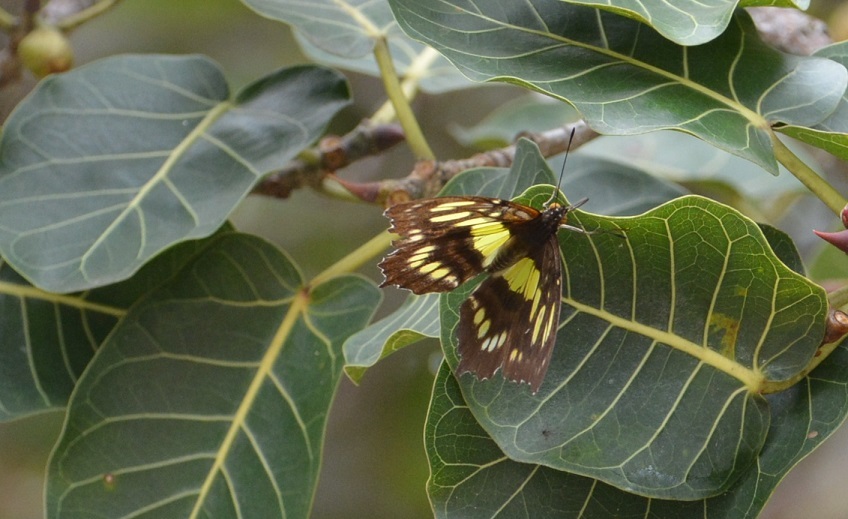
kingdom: Animalia
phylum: Arthropoda
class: Insecta
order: Lepidoptera
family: Nymphalidae
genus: Siproeta
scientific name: Siproeta stelenes
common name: Malachite
